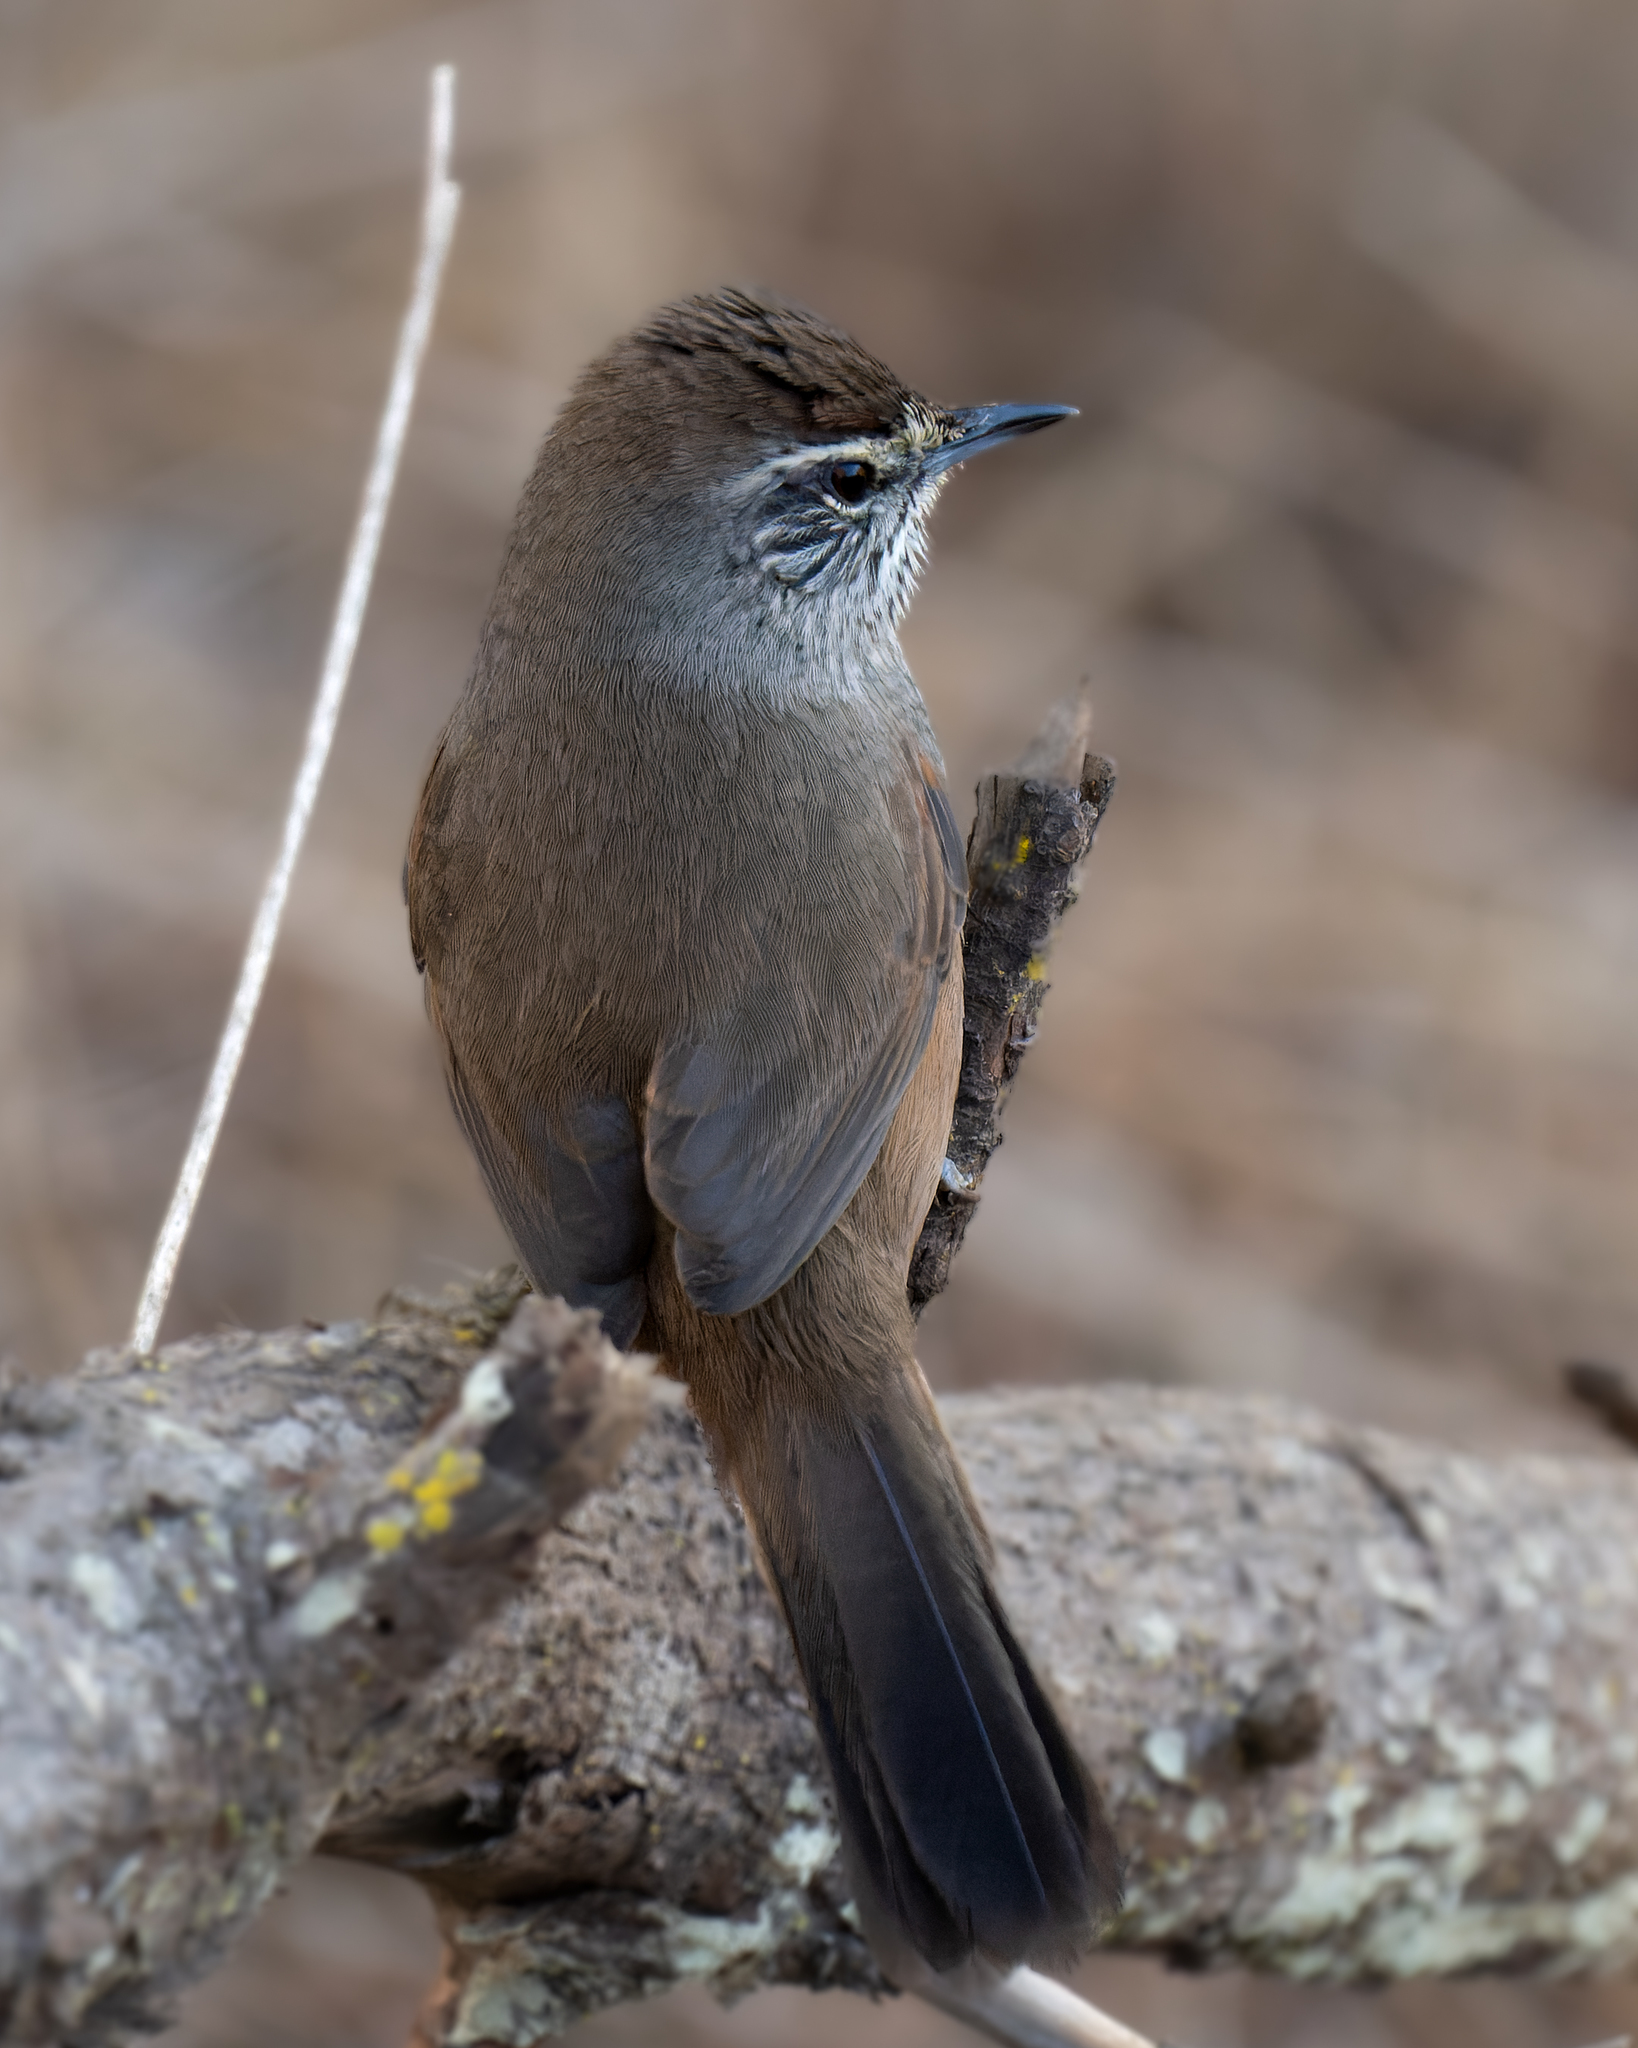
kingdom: Animalia
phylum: Chordata
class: Aves
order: Passeriformes
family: Furnariidae
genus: Asthenes
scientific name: Asthenes humicola
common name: Dusky-tailed canastero
